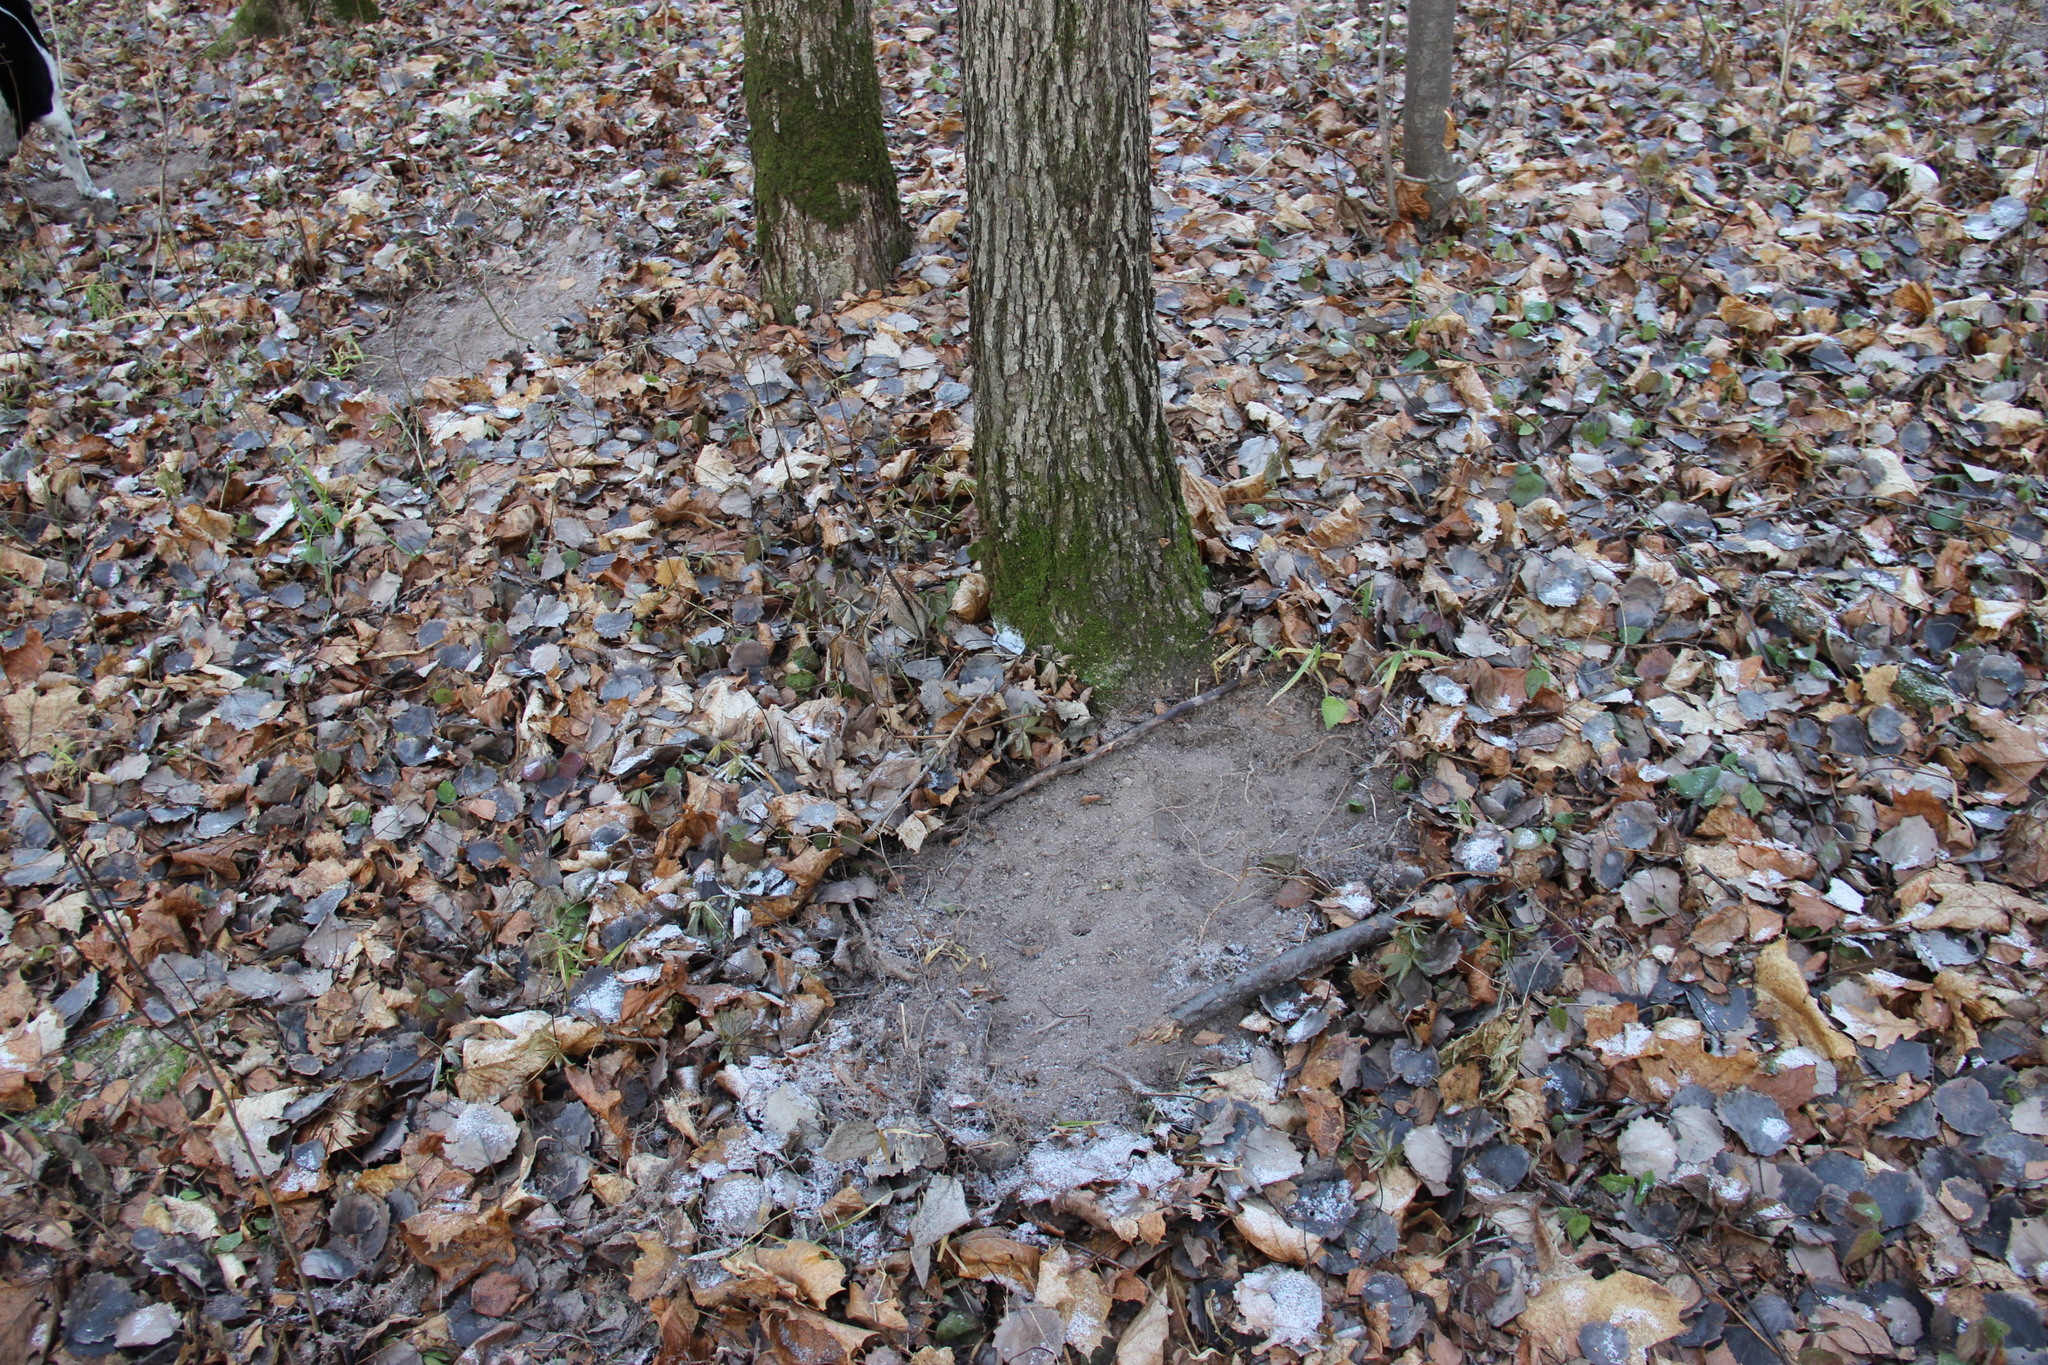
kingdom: Animalia
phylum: Chordata
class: Mammalia
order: Artiodactyla
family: Cervidae
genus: Capreolus
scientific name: Capreolus capreolus
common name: Western roe deer
